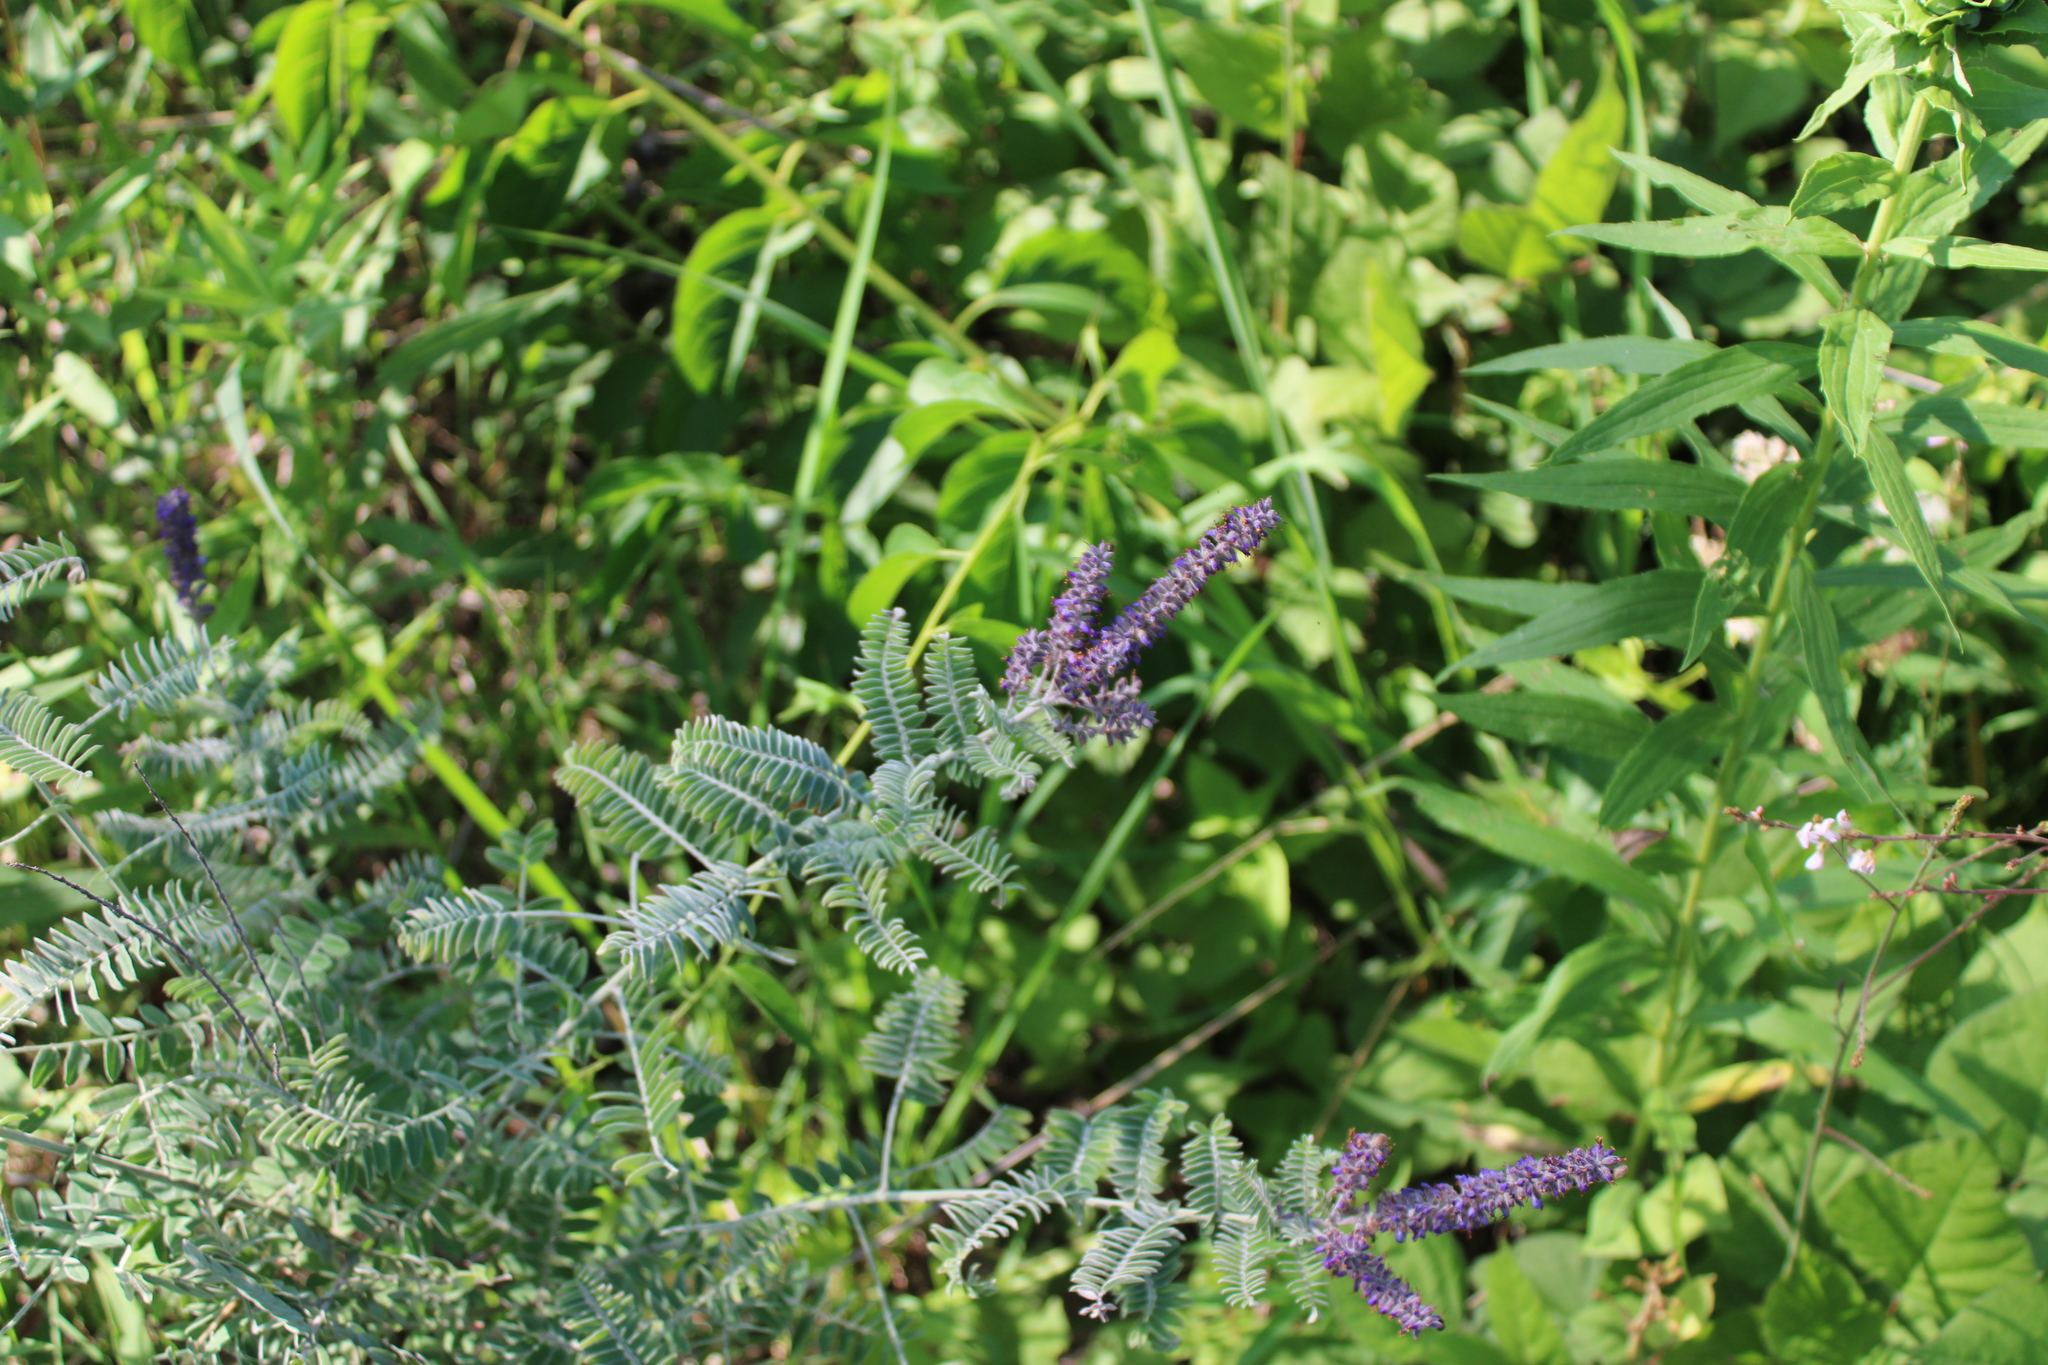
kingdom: Plantae
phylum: Tracheophyta
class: Magnoliopsida
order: Fabales
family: Fabaceae
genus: Amorpha
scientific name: Amorpha canescens
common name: Leadplant
